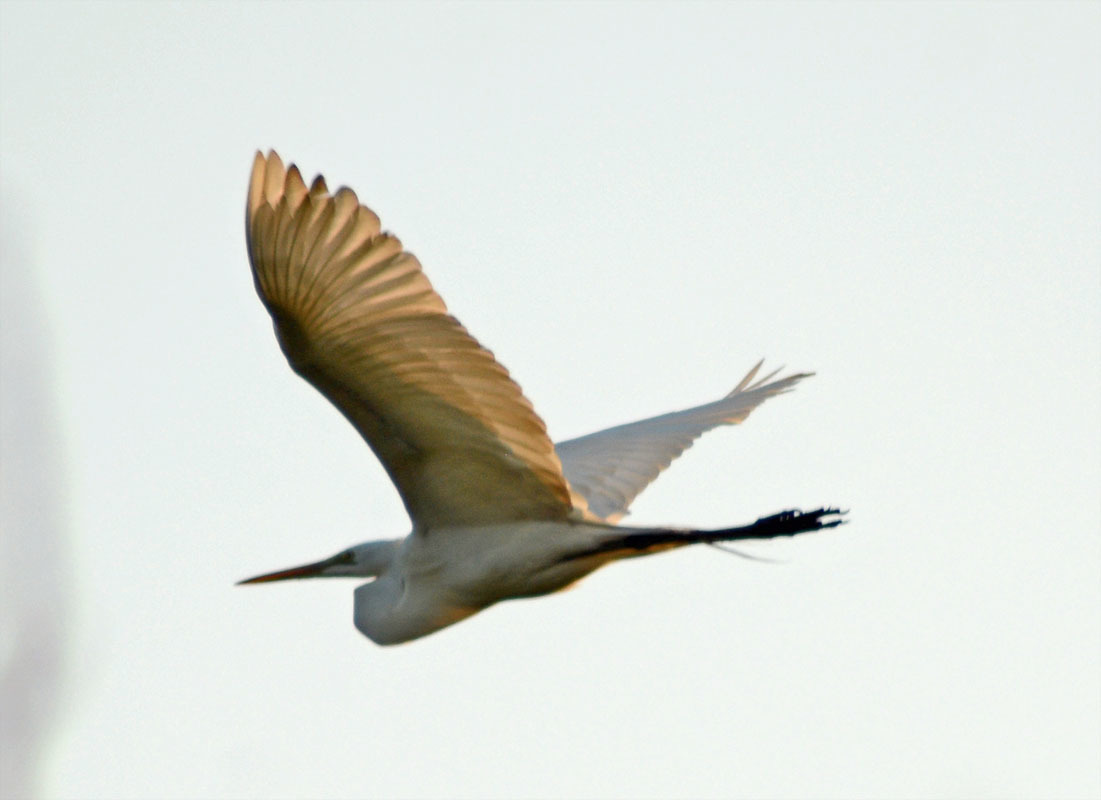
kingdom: Animalia
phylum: Chordata
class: Aves
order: Pelecaniformes
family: Ardeidae
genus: Ardea
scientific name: Ardea alba
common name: Great egret
